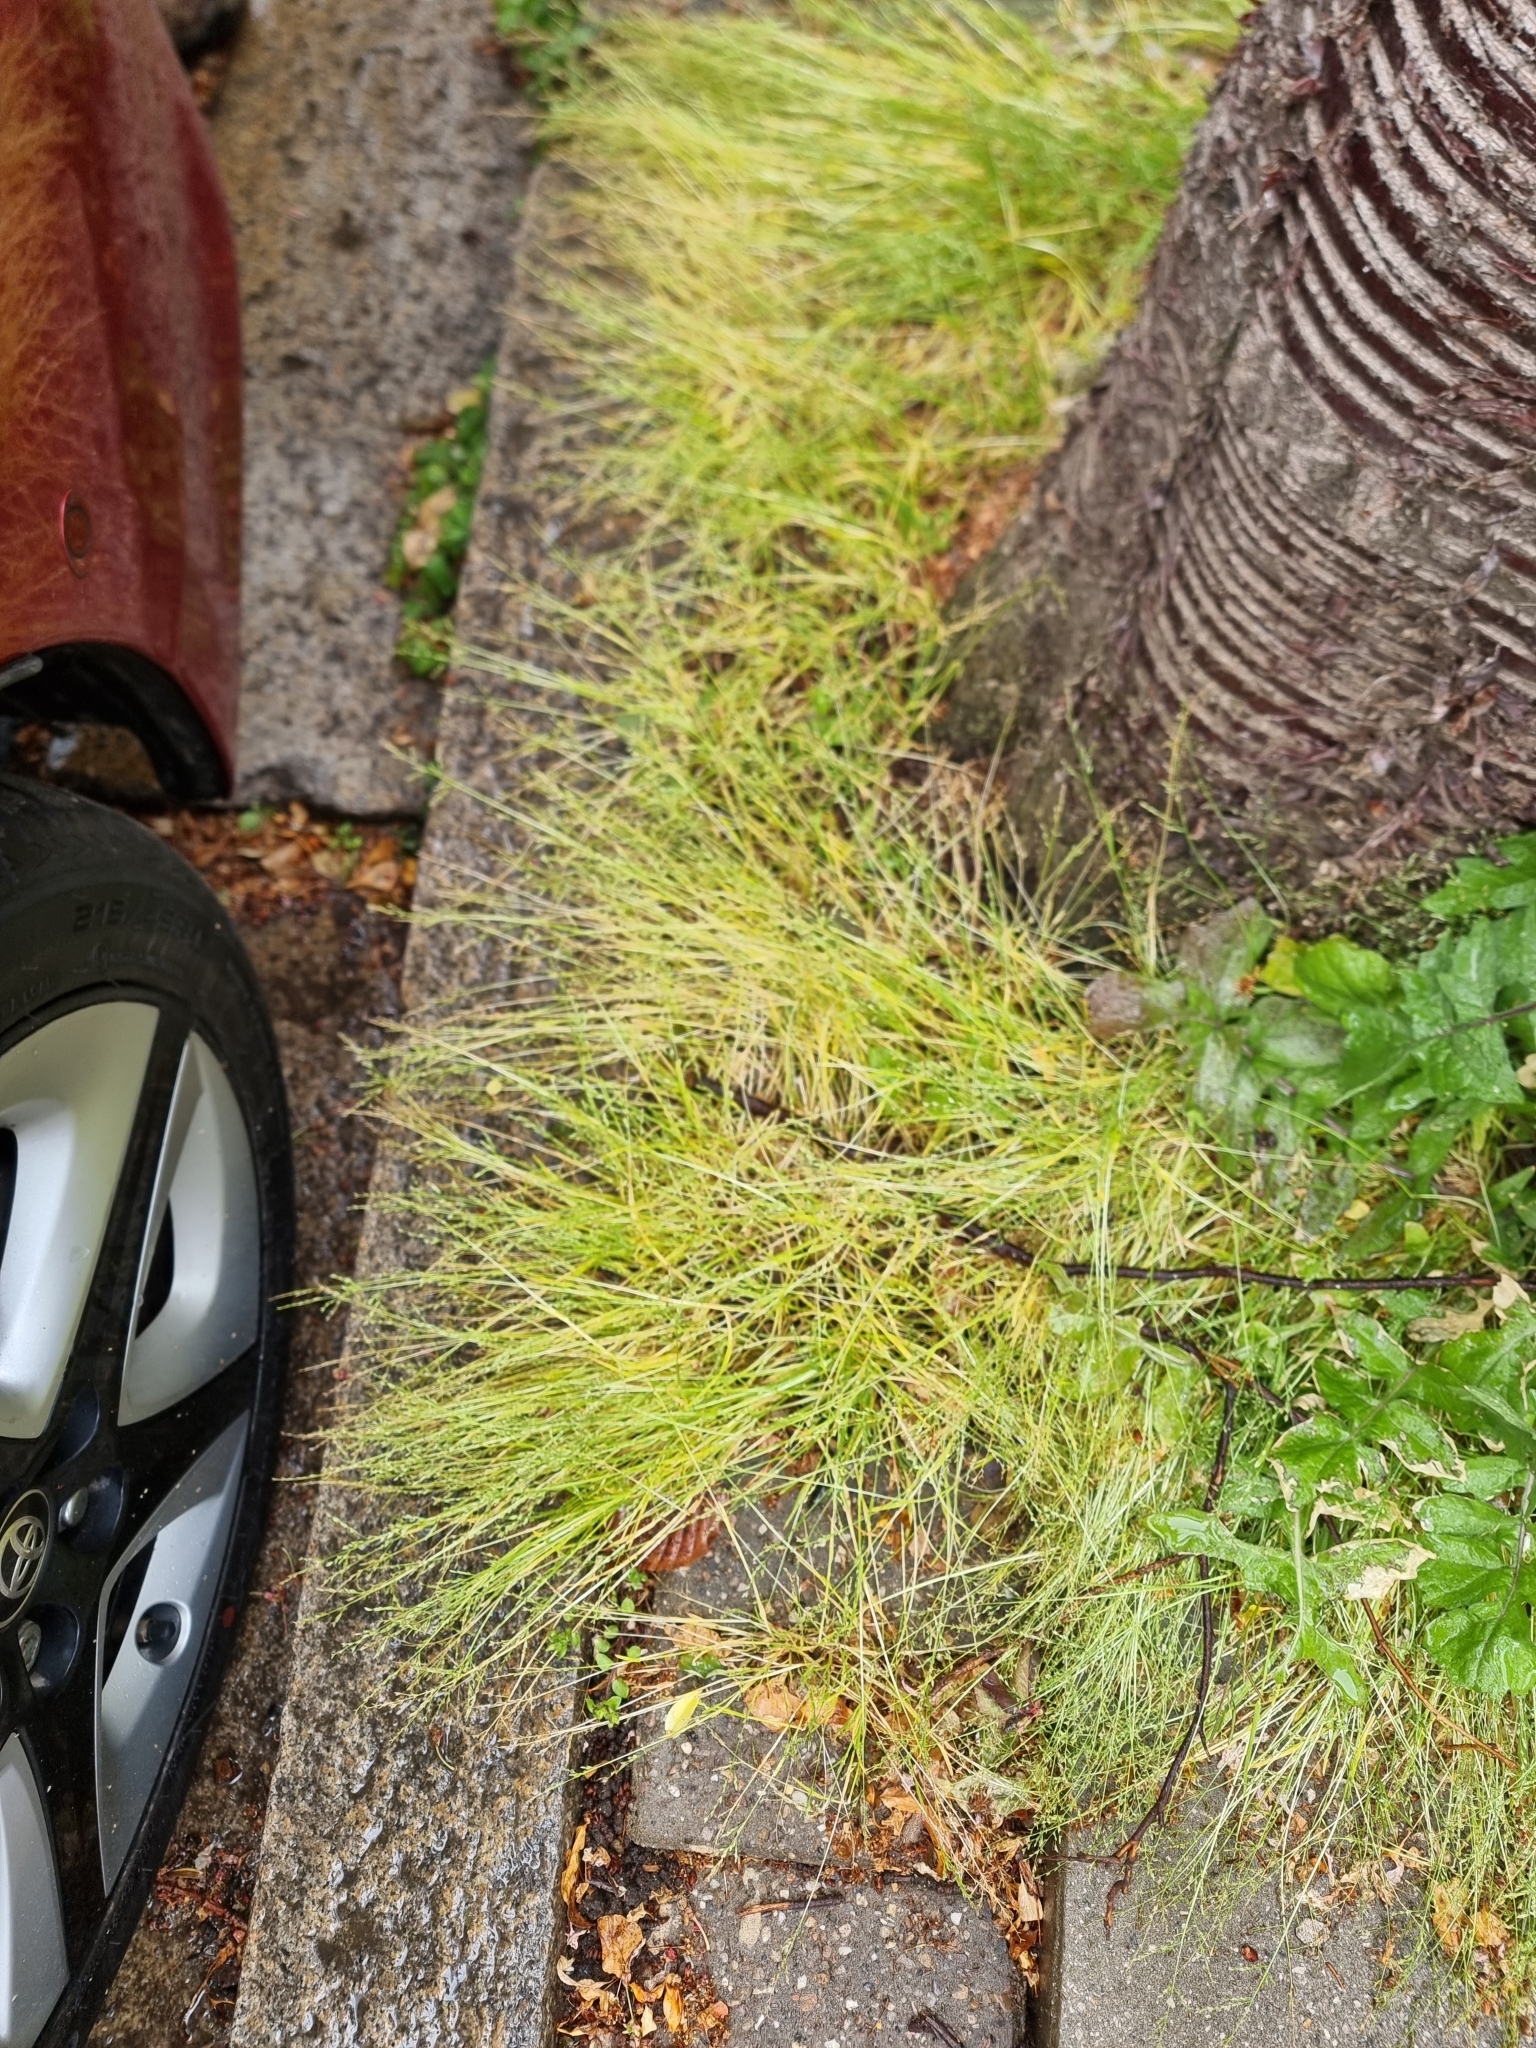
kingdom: Plantae
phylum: Tracheophyta
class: Liliopsida
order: Poales
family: Poaceae
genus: Poa
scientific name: Poa infirma
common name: Weak bluegrass
